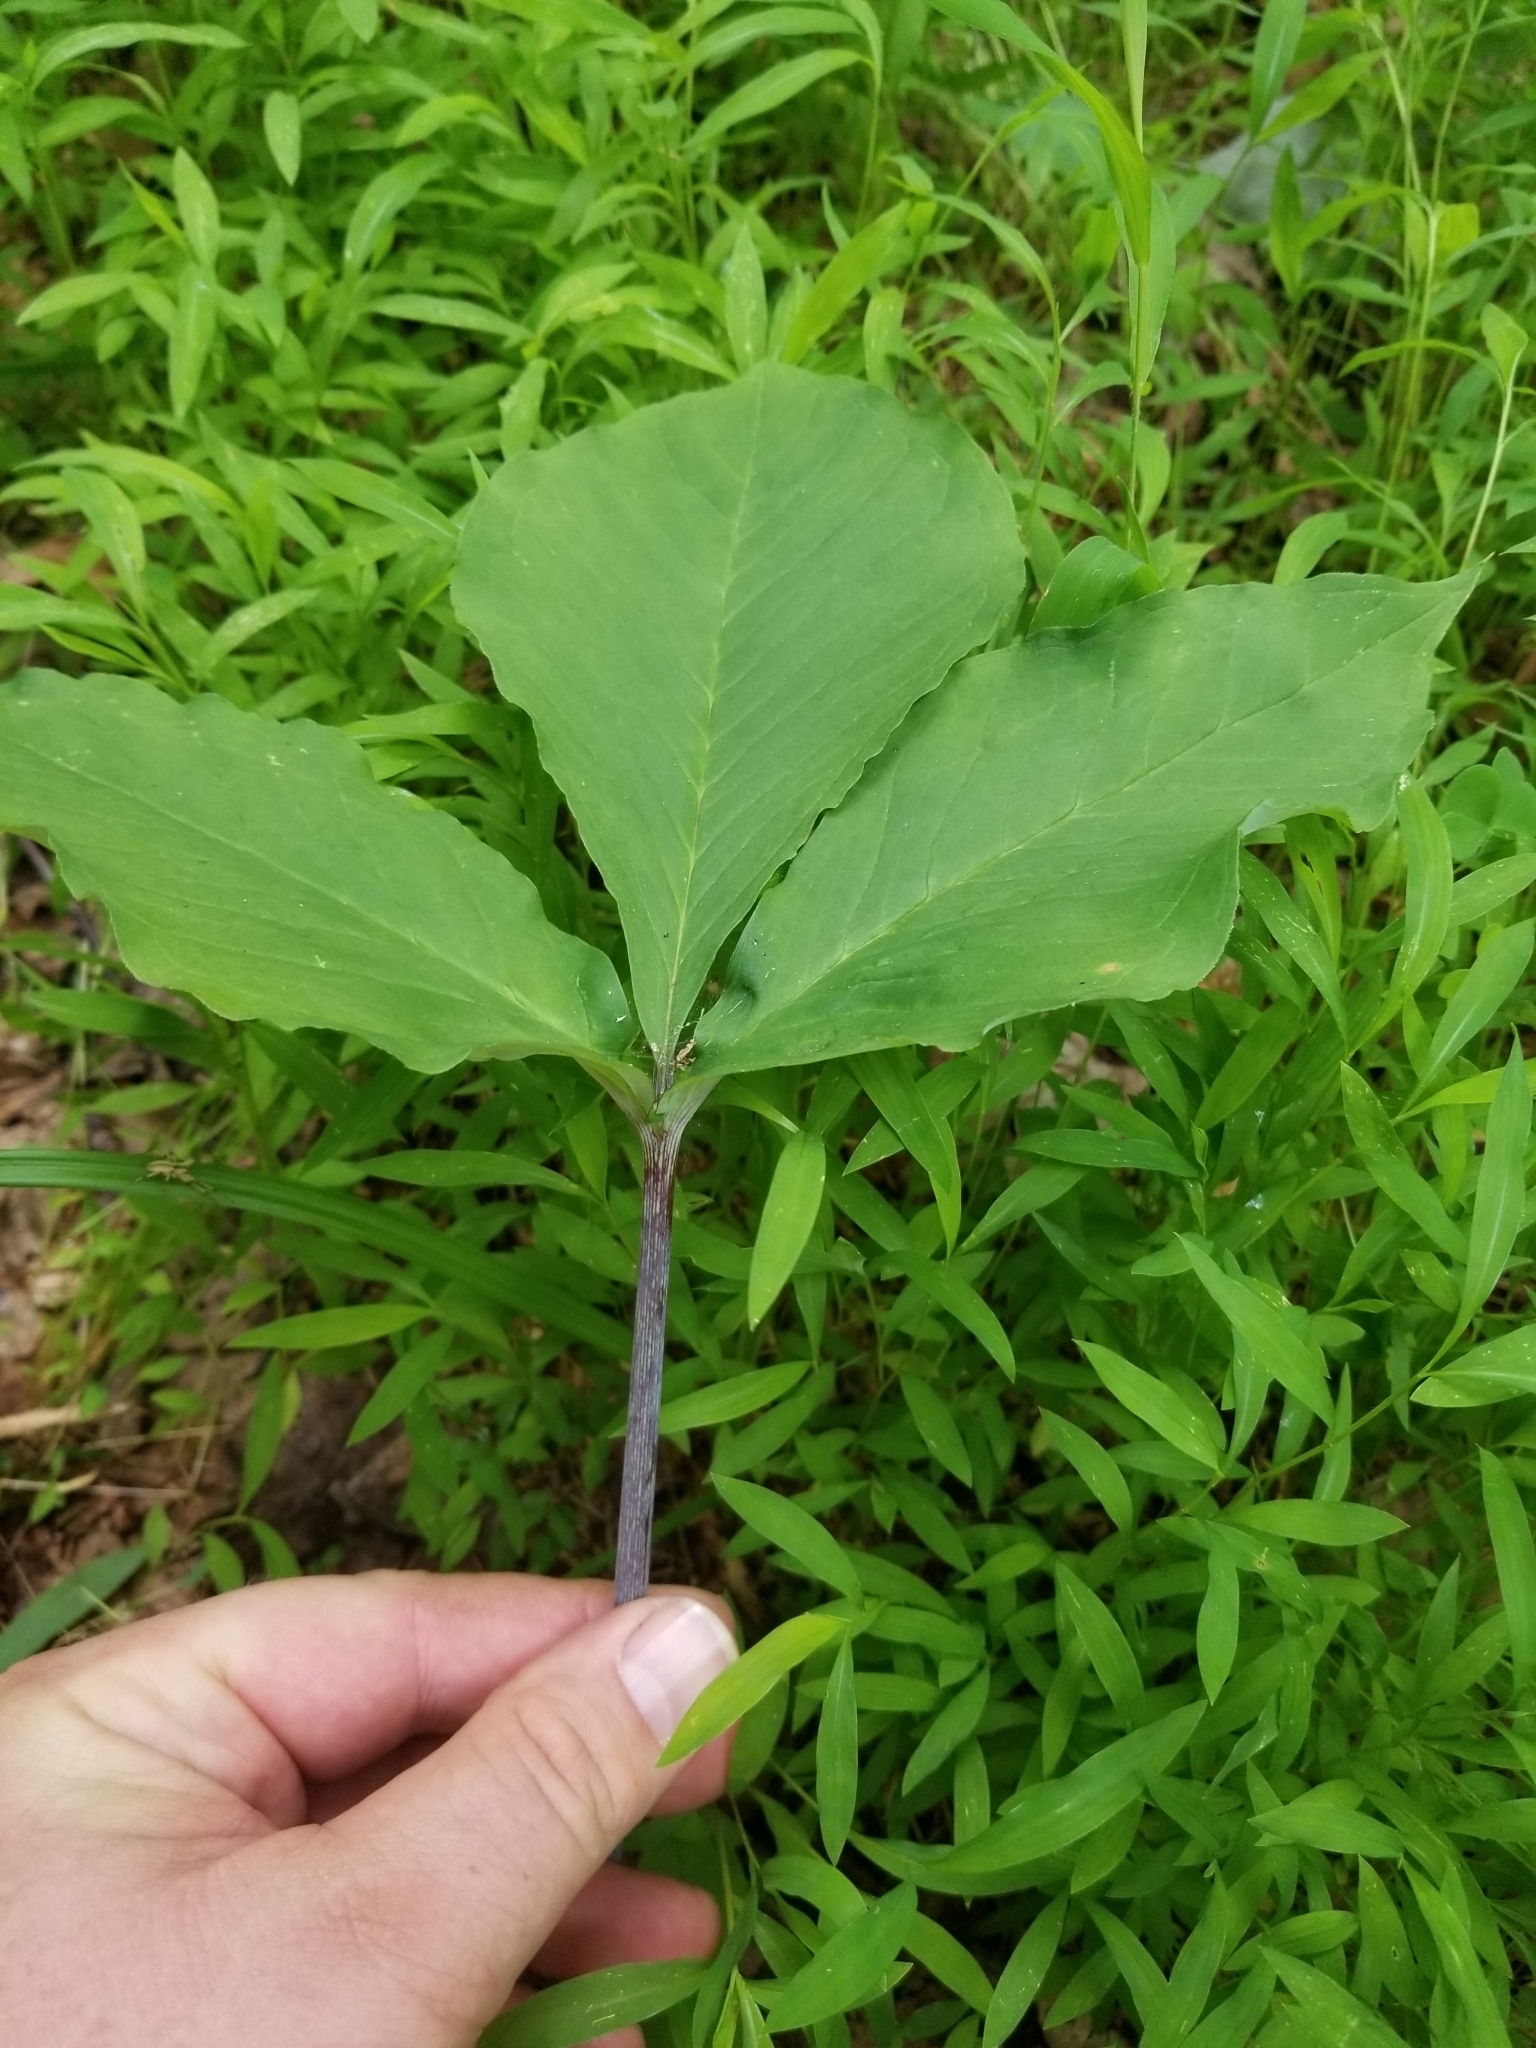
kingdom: Plantae
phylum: Tracheophyta
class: Liliopsida
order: Alismatales
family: Araceae
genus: Arisaema
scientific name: Arisaema triphyllum
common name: Jack-in-the-pulpit
